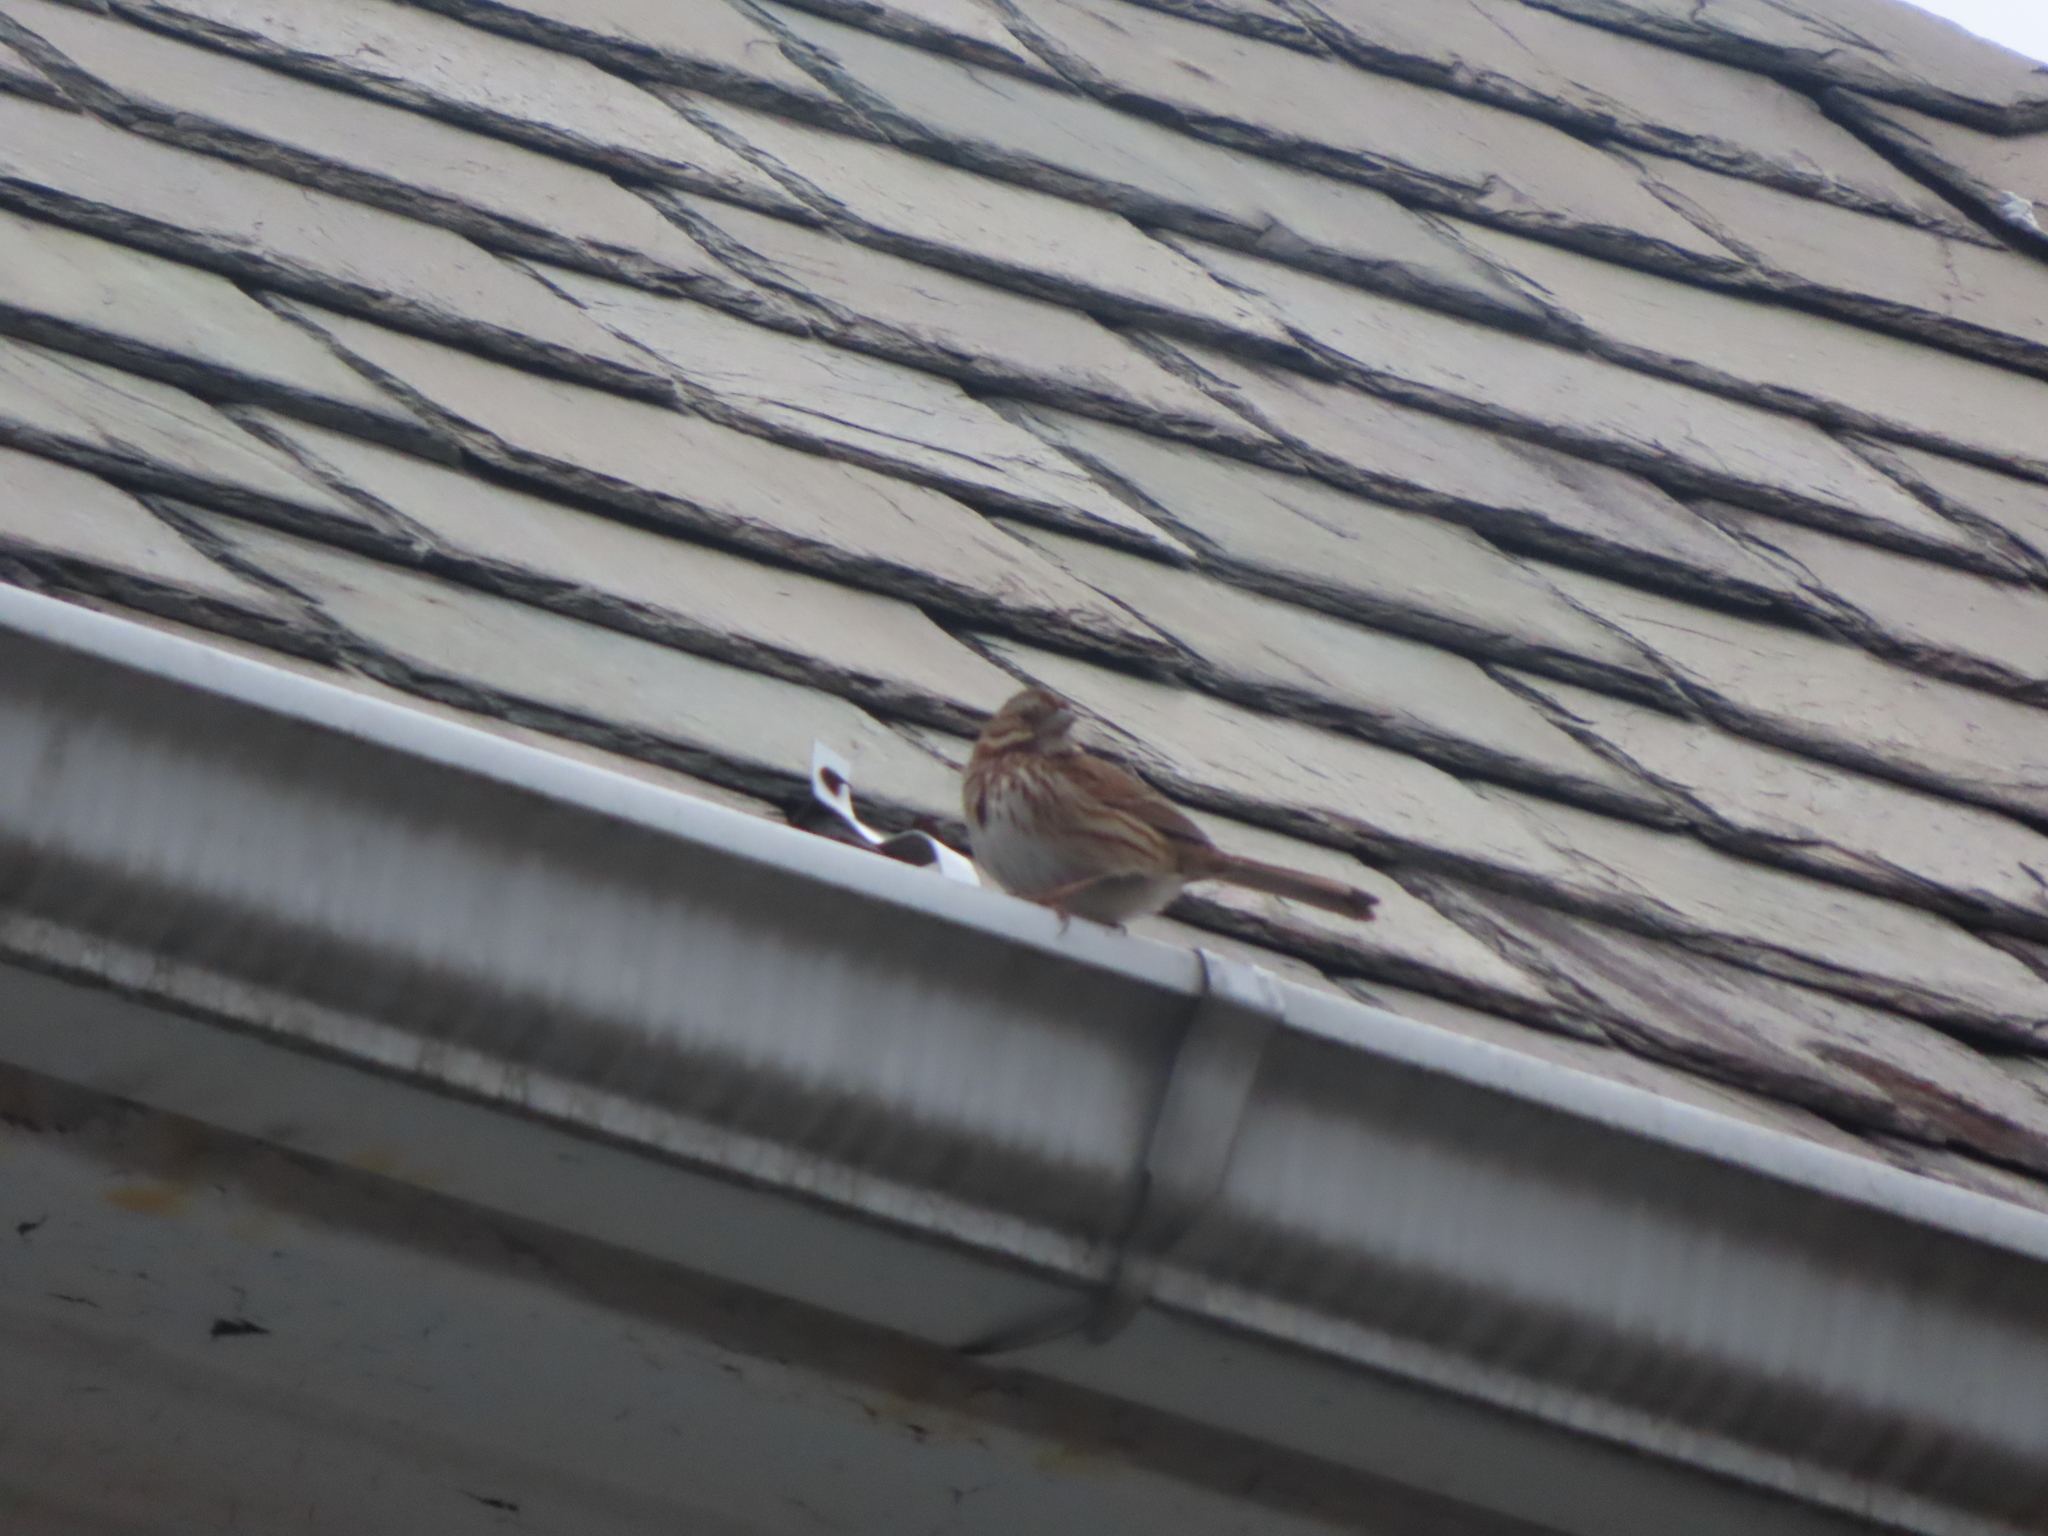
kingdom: Animalia
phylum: Chordata
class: Aves
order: Passeriformes
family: Passerellidae
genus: Melospiza
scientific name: Melospiza melodia
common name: Song sparrow
